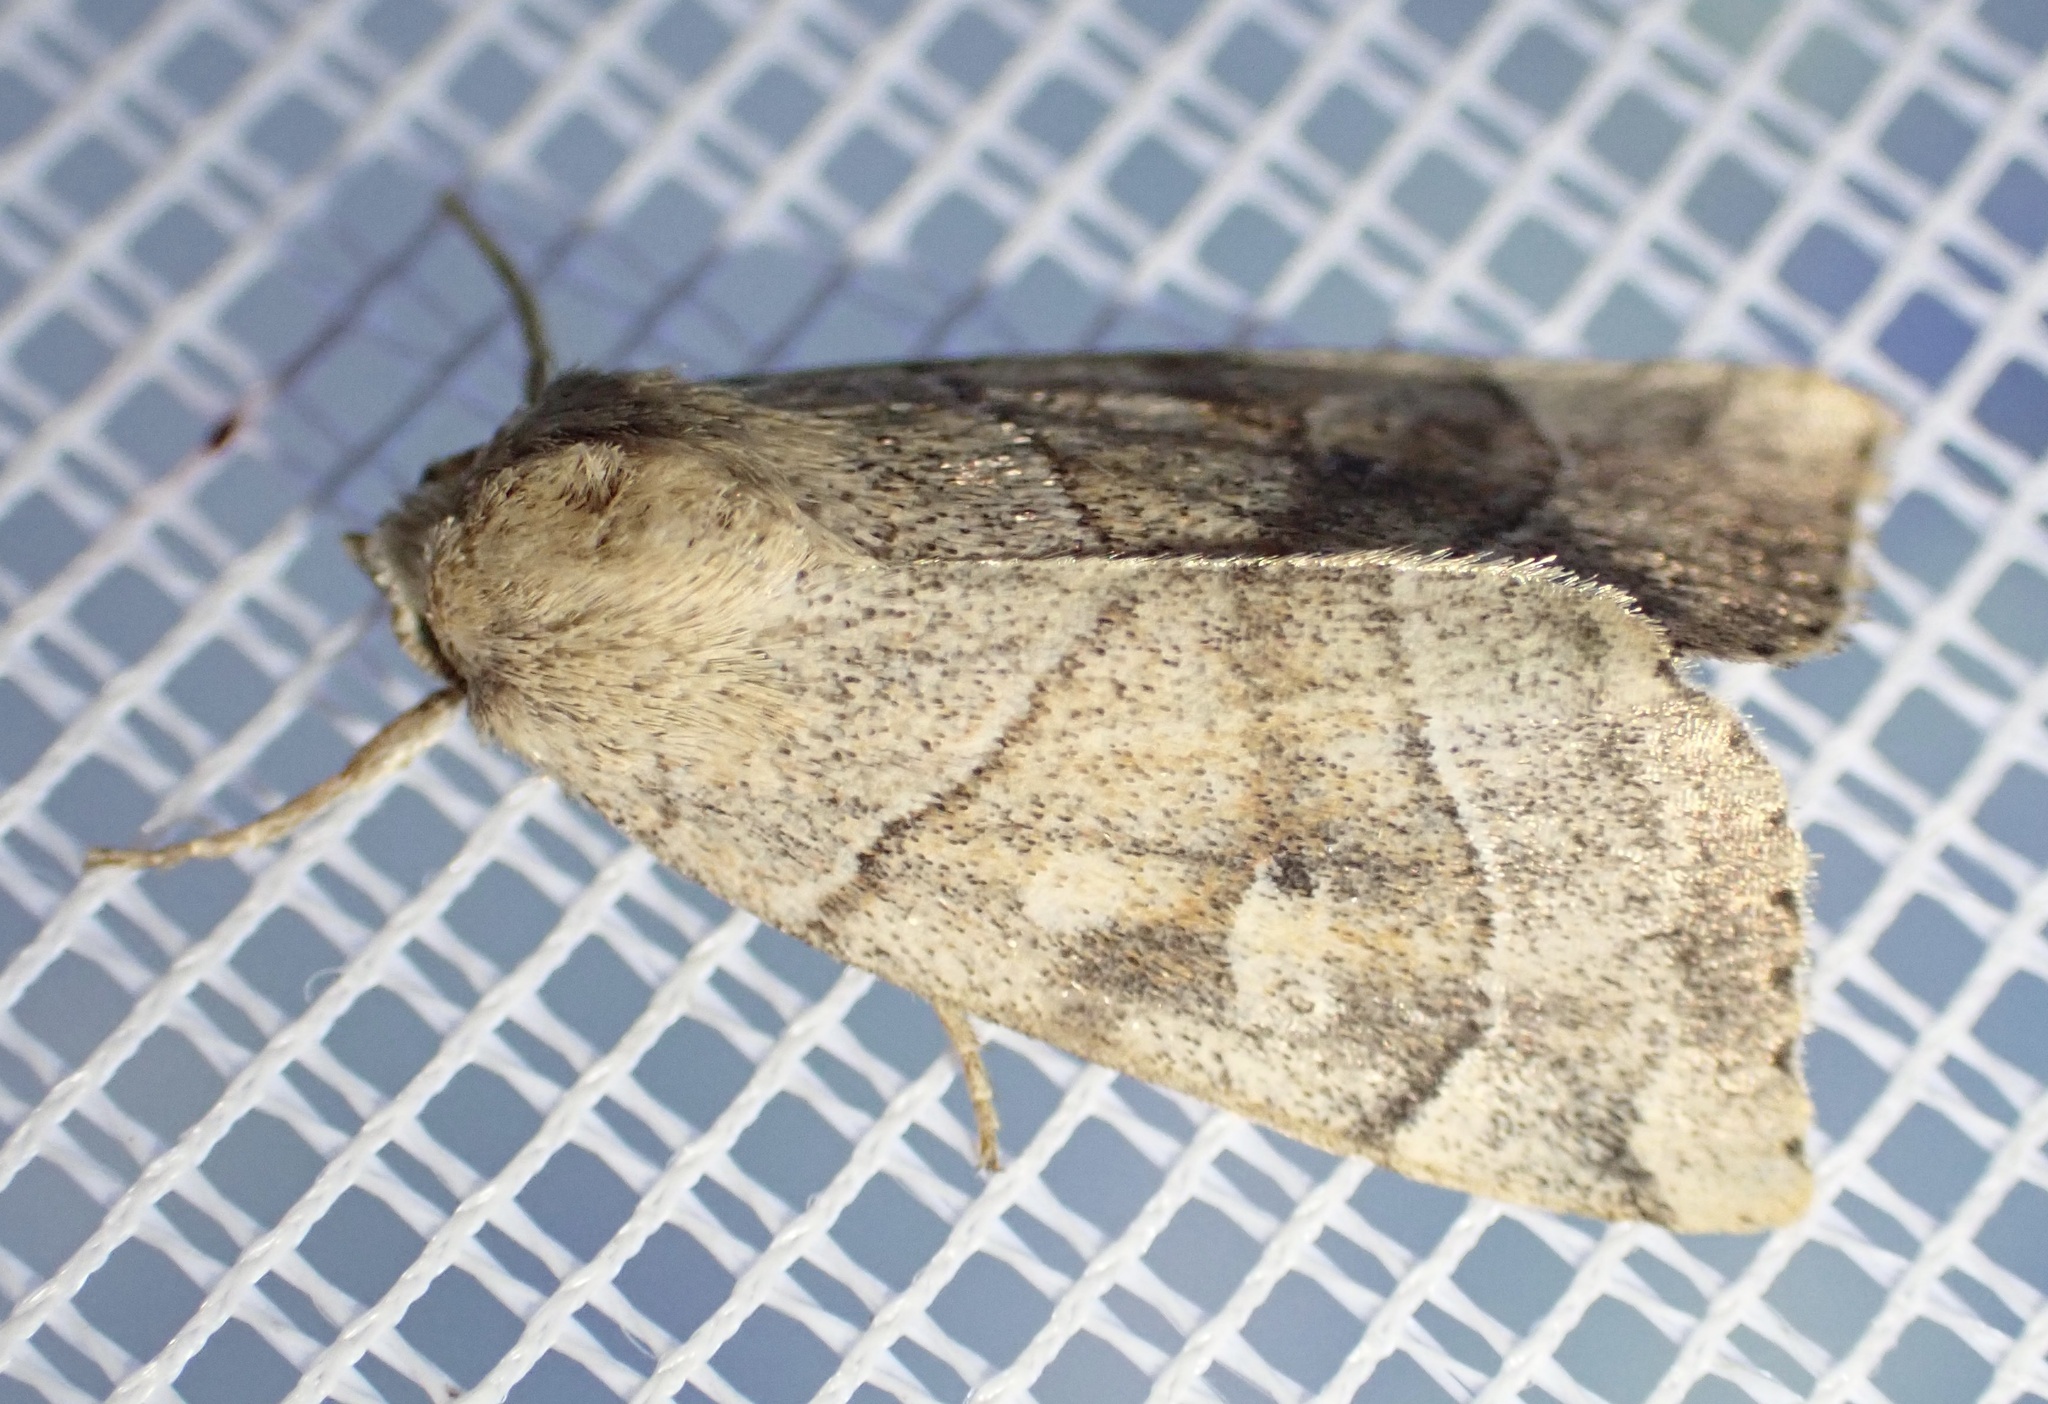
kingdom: Animalia
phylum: Arthropoda
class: Insecta
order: Lepidoptera
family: Noctuidae
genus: Cosmia
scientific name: Cosmia trapezina
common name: Dun-bar
